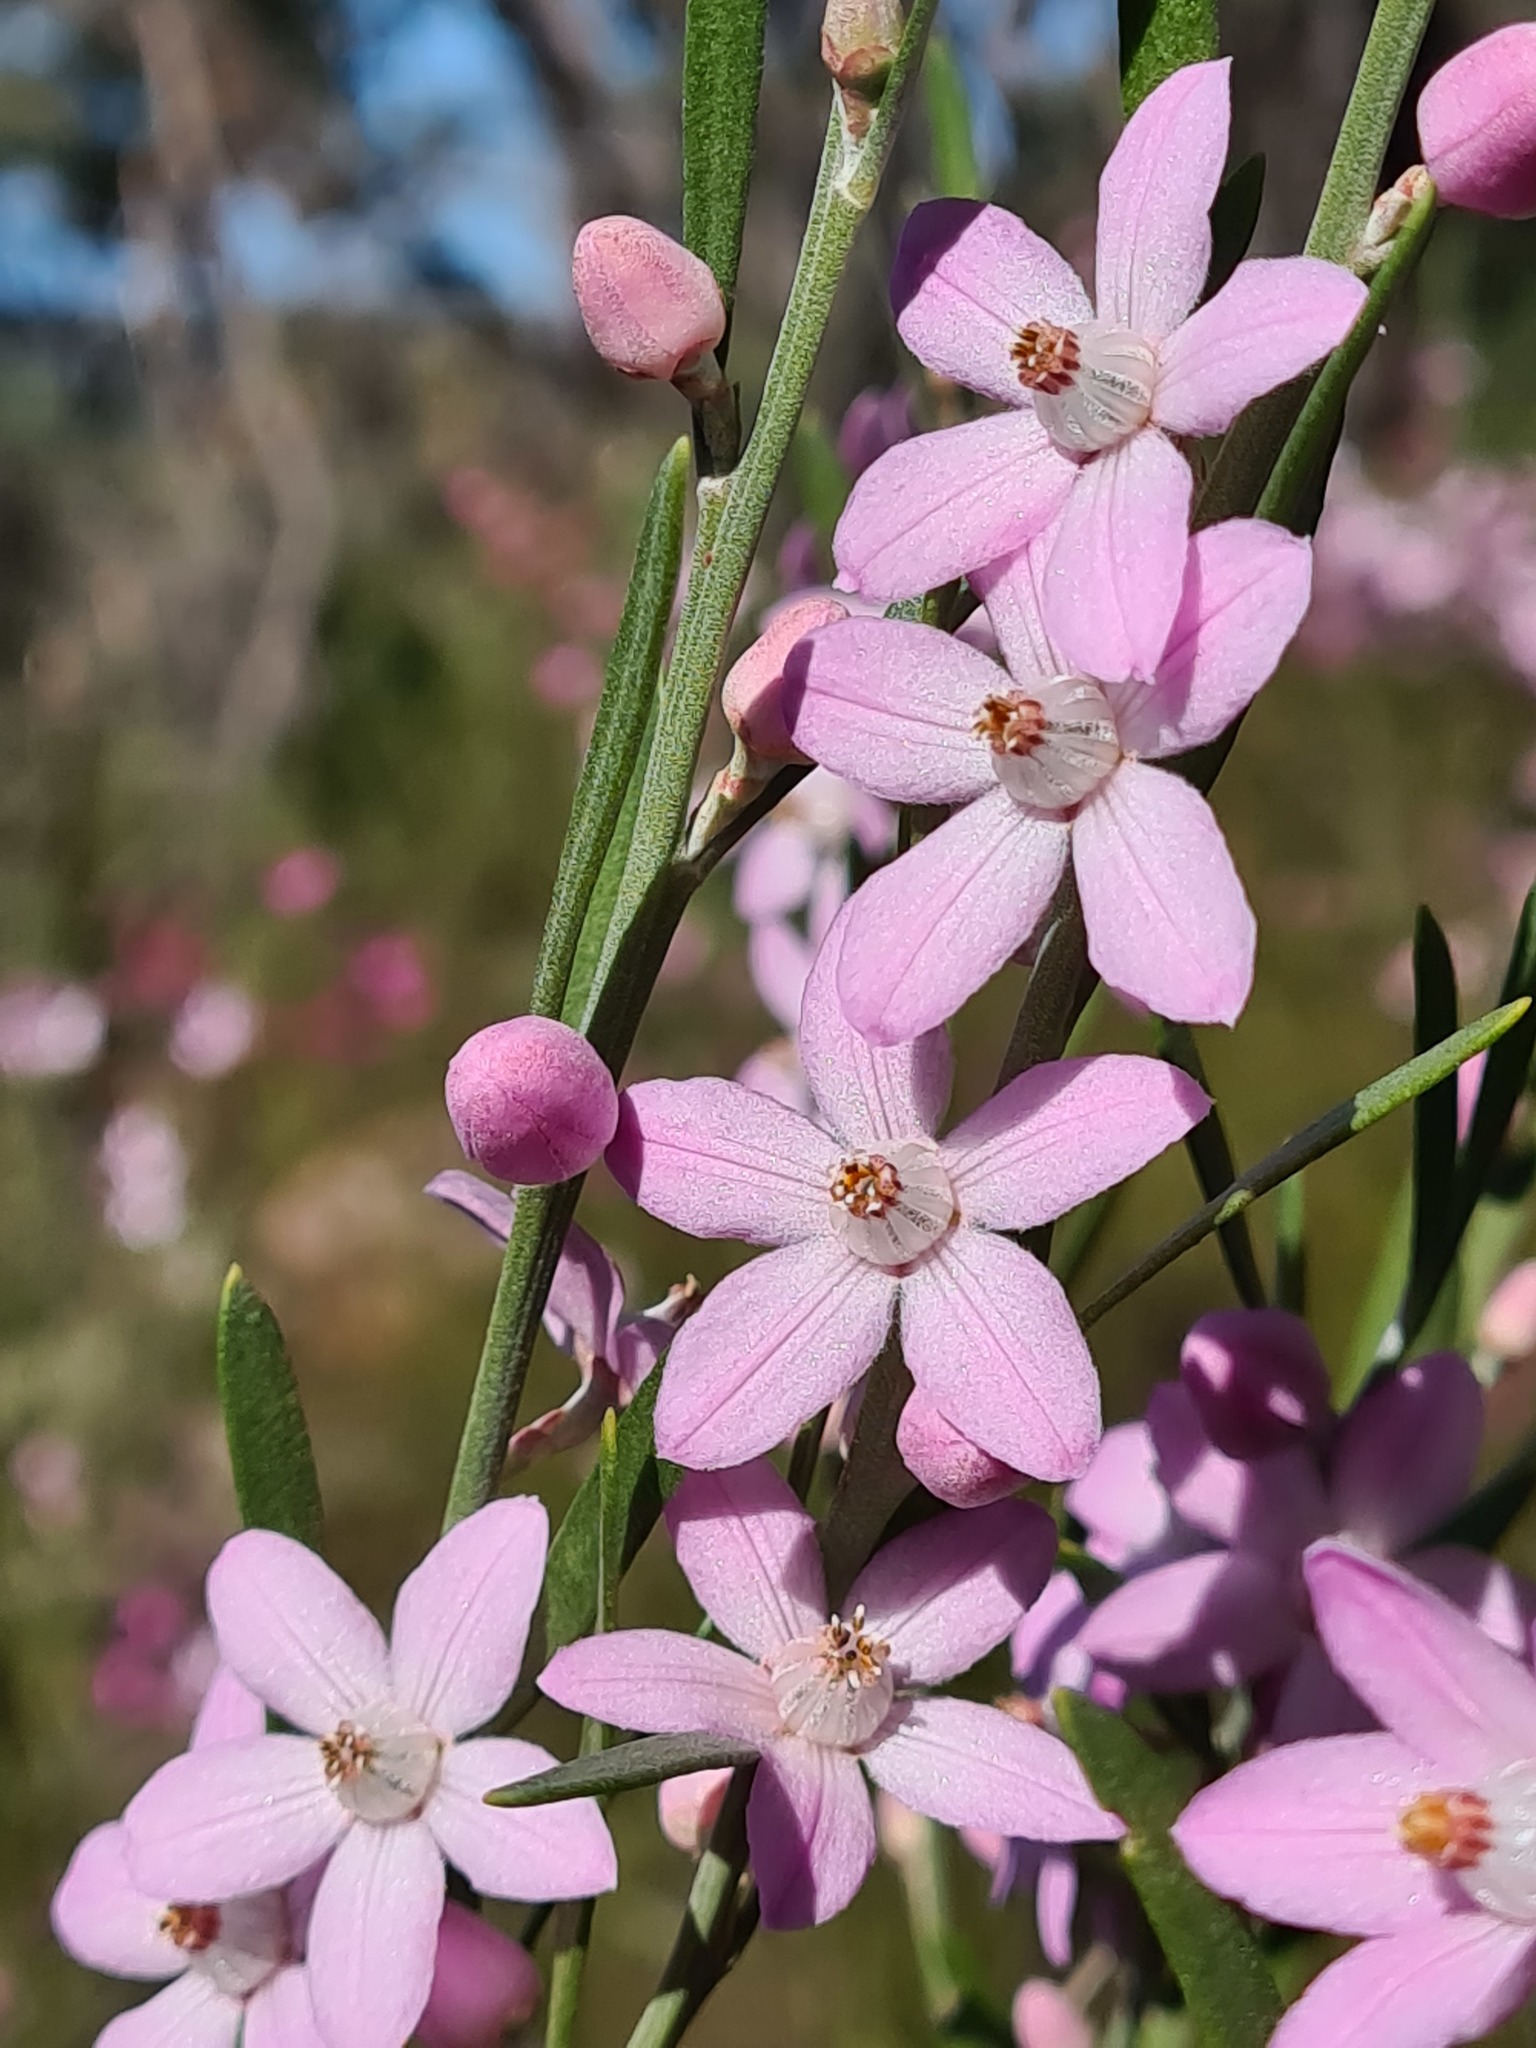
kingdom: Plantae
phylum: Tracheophyta
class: Magnoliopsida
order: Sapindales
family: Rutaceae
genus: Eriostemon
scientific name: Eriostemon australasius
